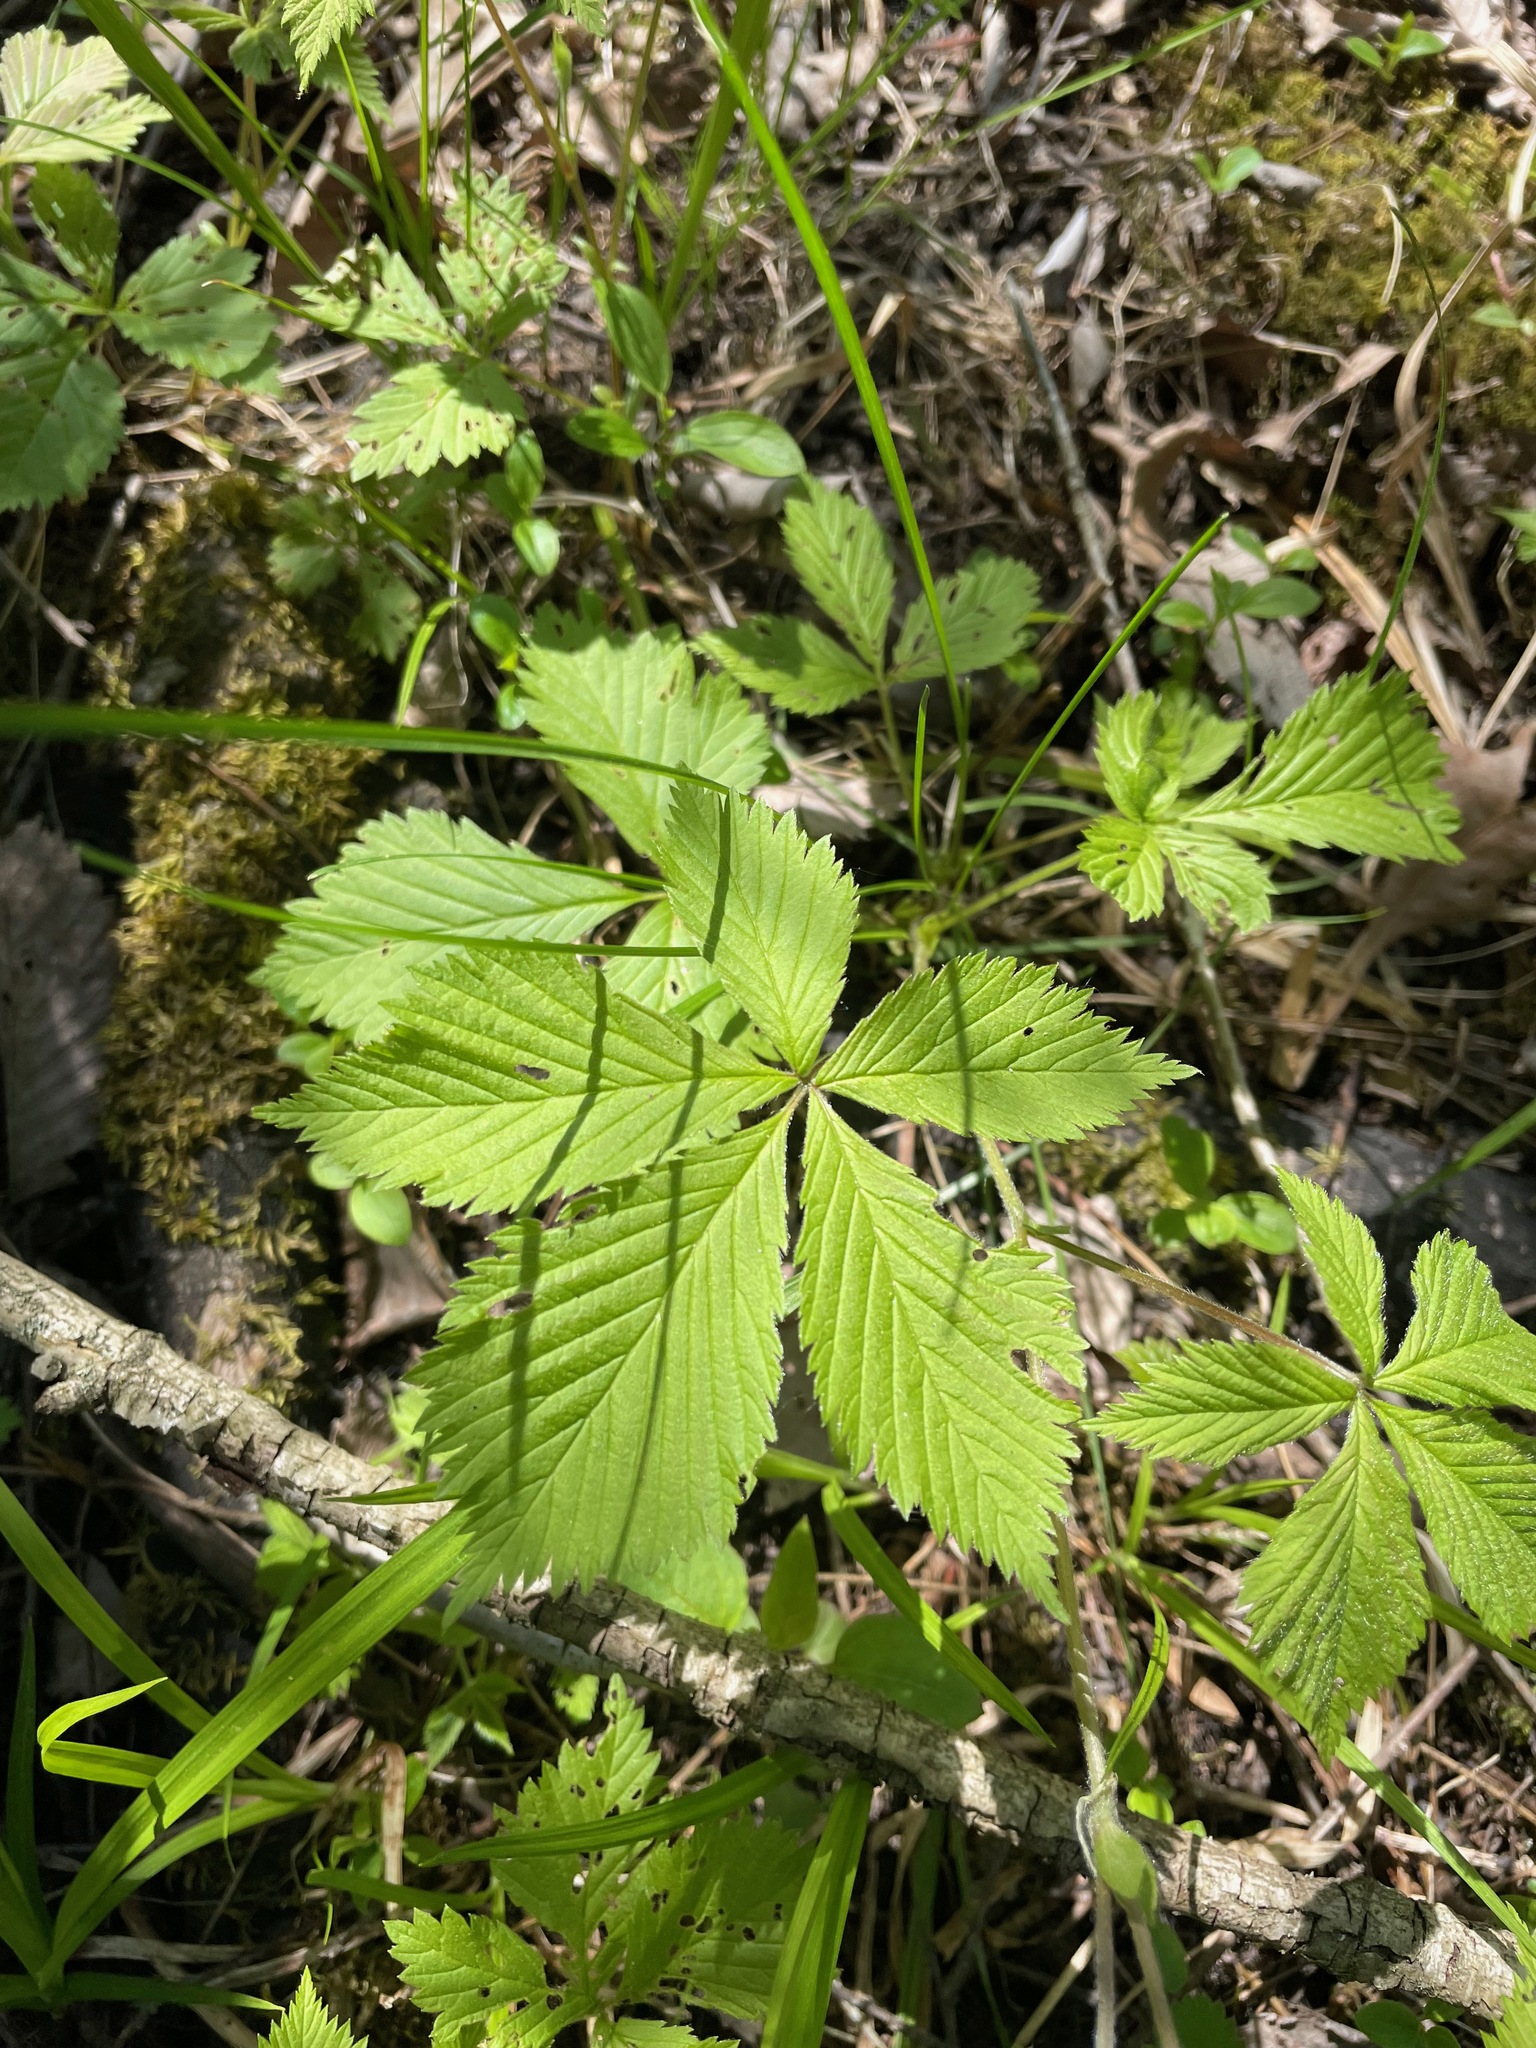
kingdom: Plantae
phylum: Tracheophyta
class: Magnoliopsida
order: Rosales
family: Rosaceae
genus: Rubus
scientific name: Rubus pubescens
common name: Dwarf raspberry
